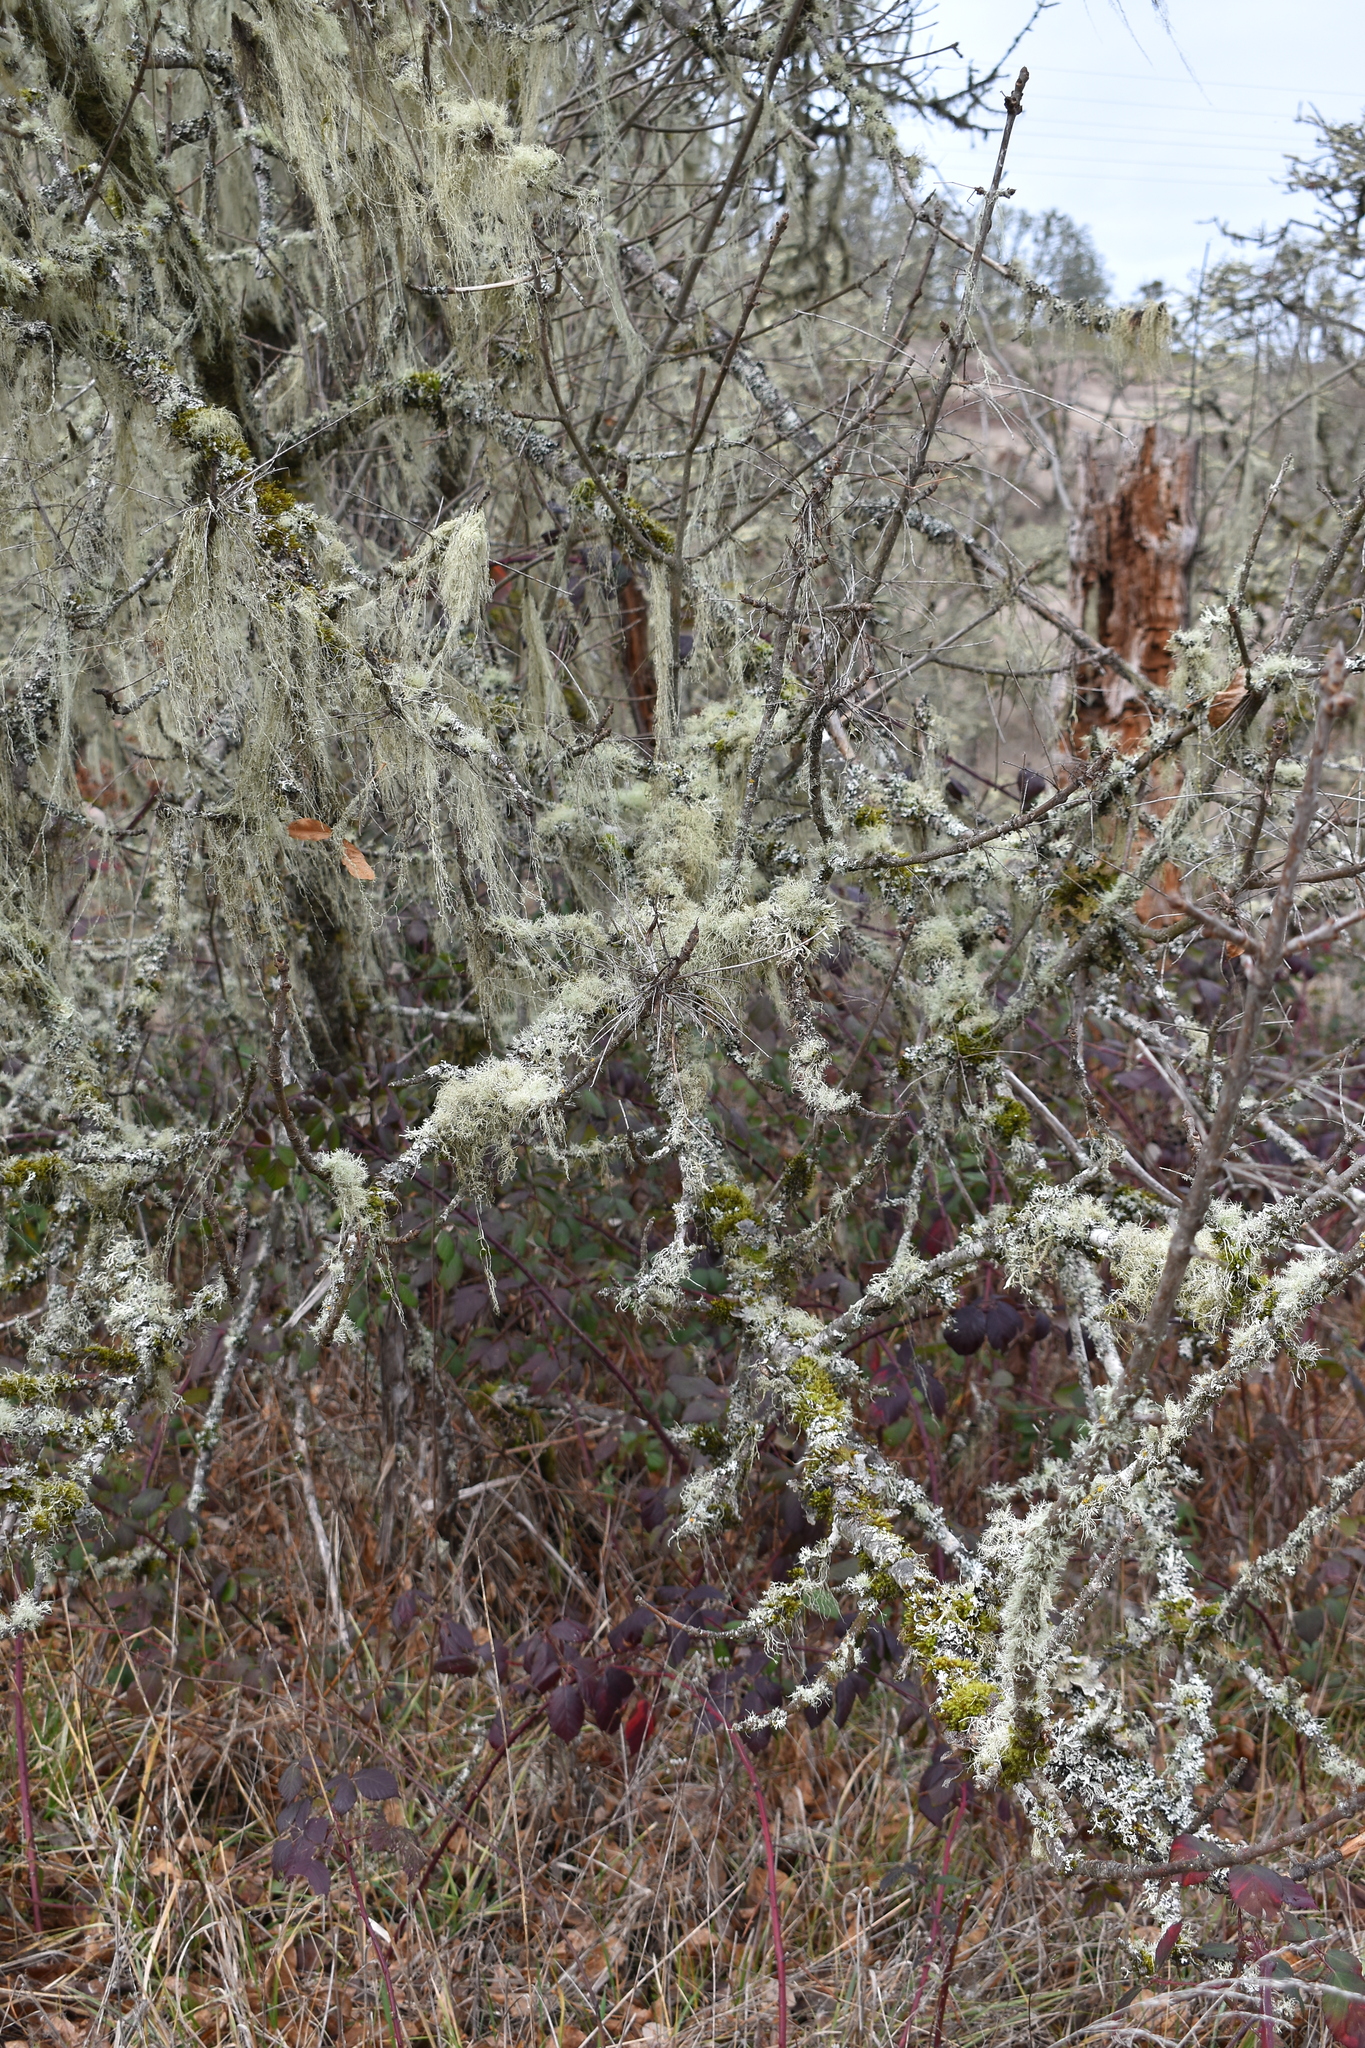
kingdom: Fungi
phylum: Ascomycota
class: Lecanoromycetes
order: Peltigerales
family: Lobariaceae
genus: Lobarina
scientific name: Lobarina scrobiculata
